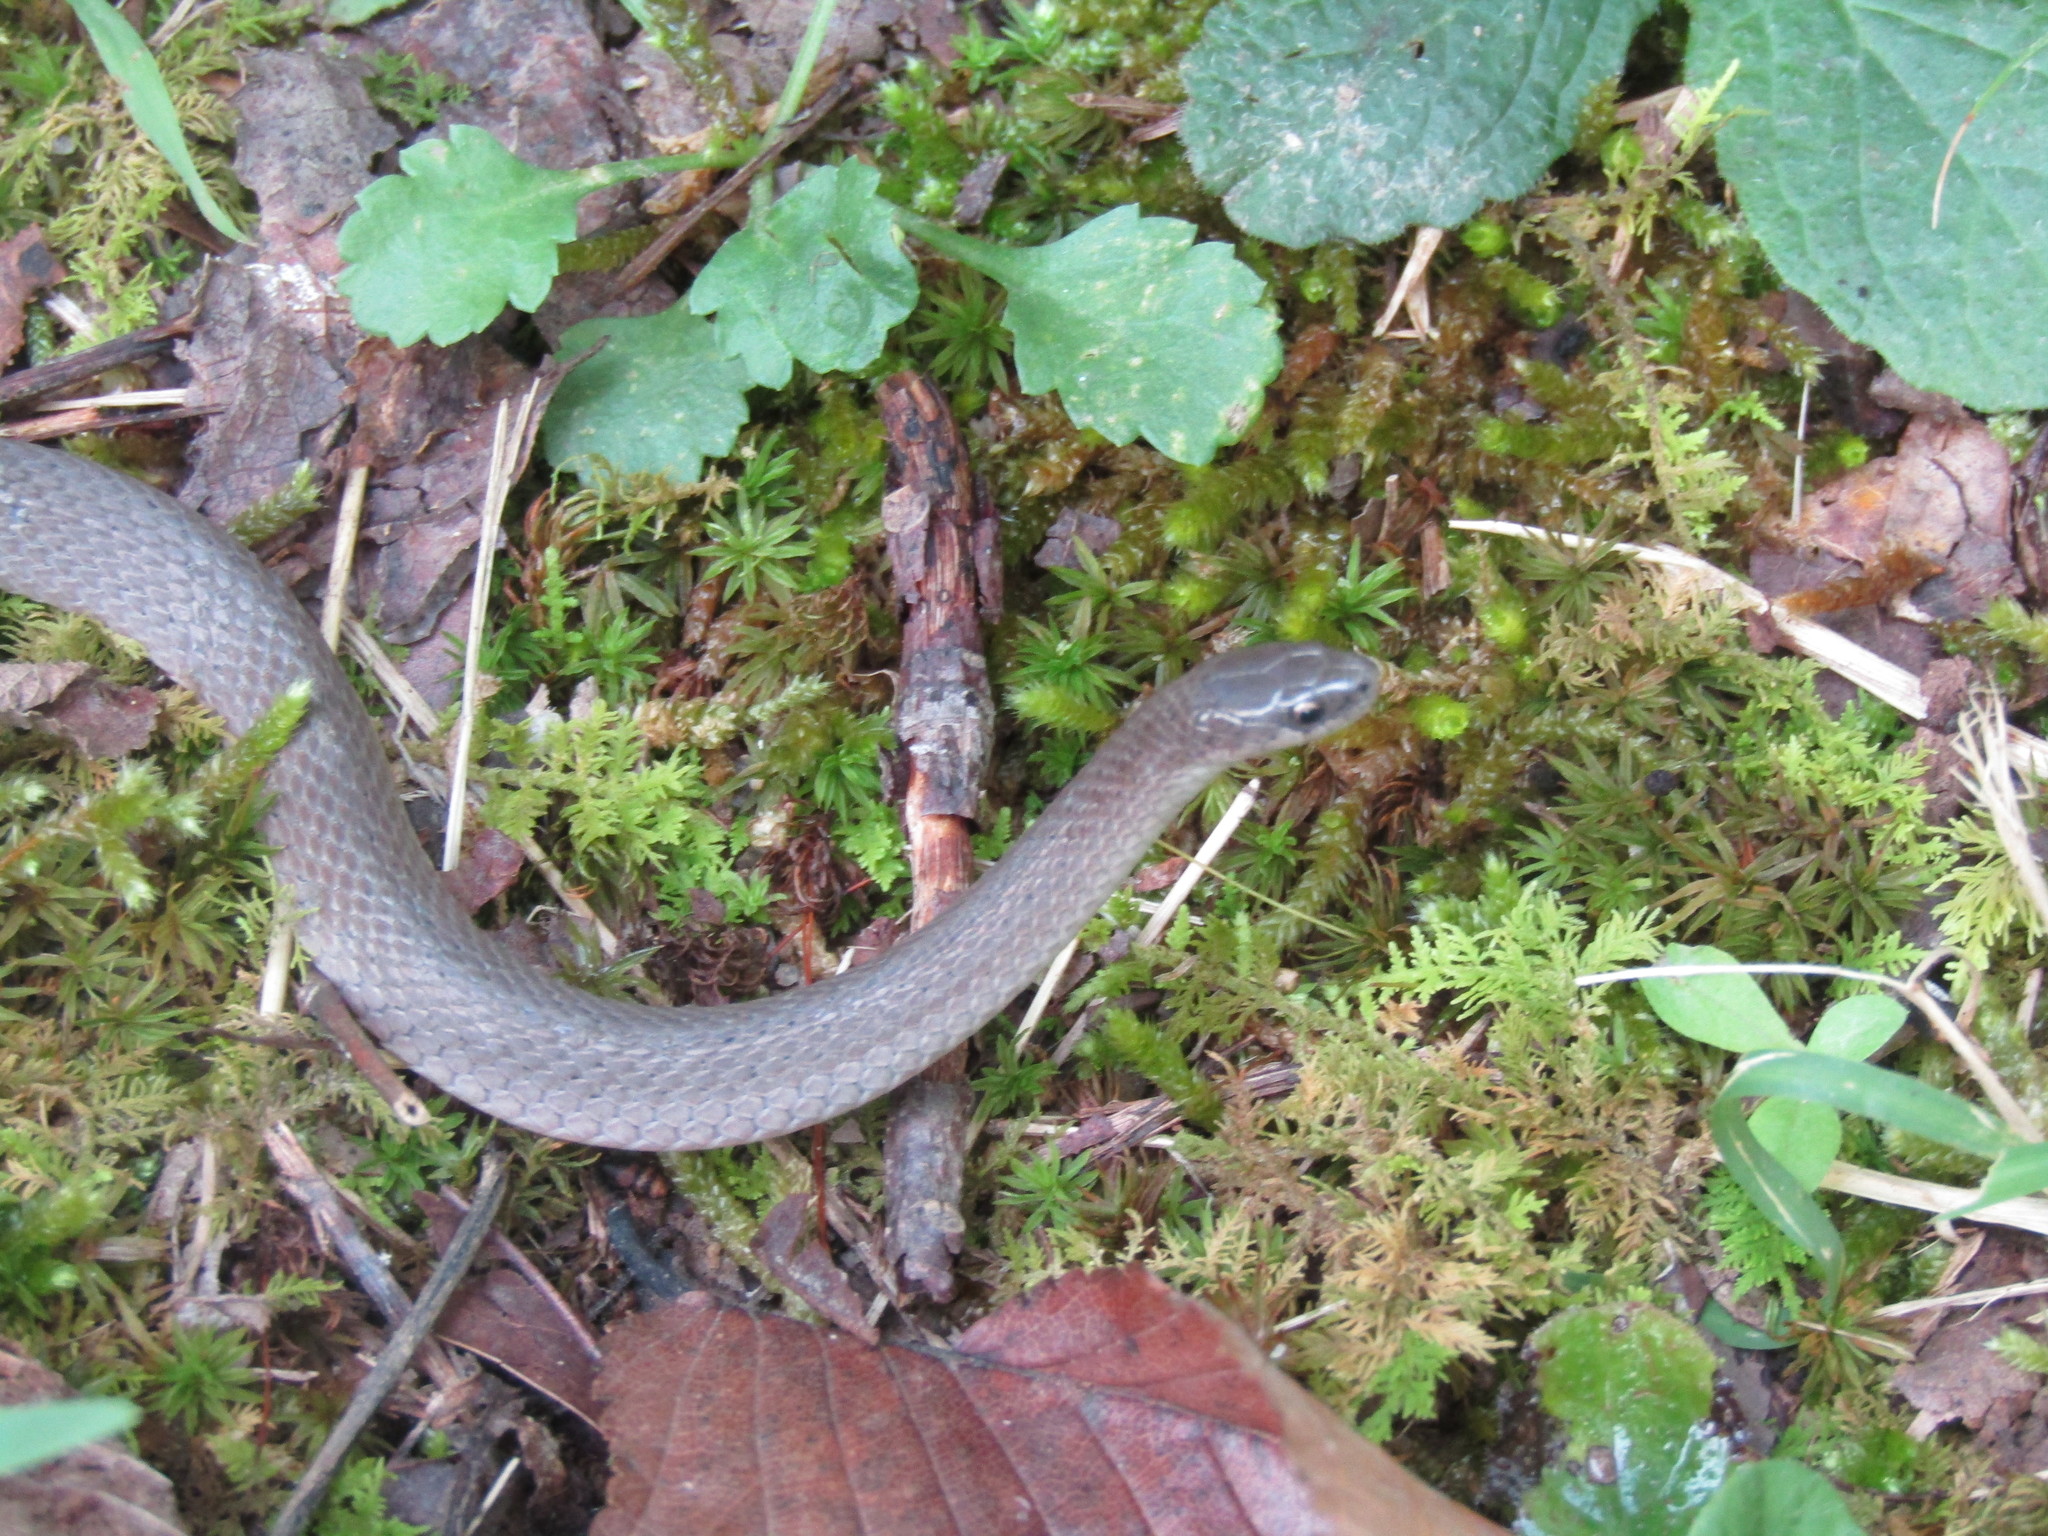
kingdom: Animalia
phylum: Chordata
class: Squamata
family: Colubridae
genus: Virginia
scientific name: Virginia valeriae
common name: Smooth earth snake
